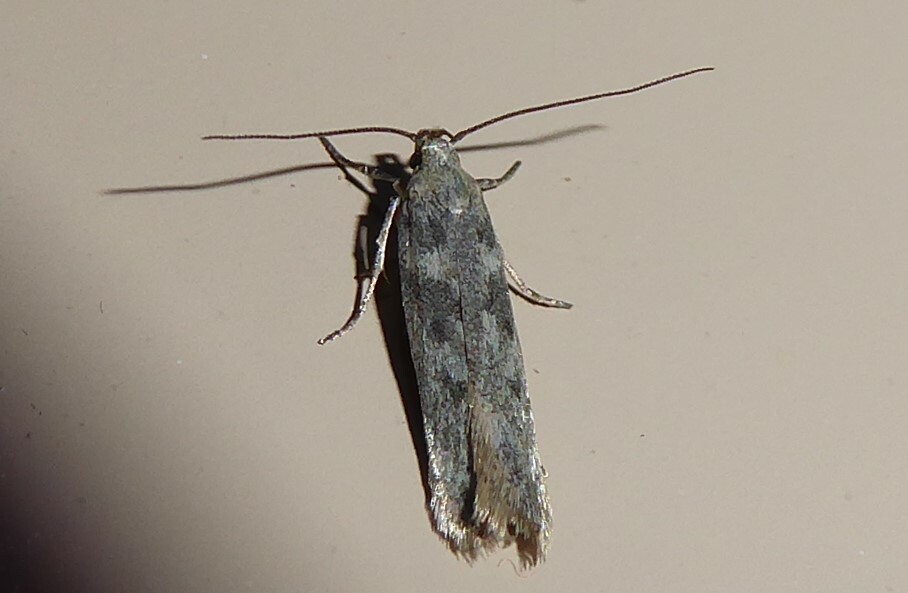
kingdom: Animalia
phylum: Arthropoda
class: Insecta
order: Lepidoptera
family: Gelechiidae
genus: Kiwaia
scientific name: Kiwaia lithodes
